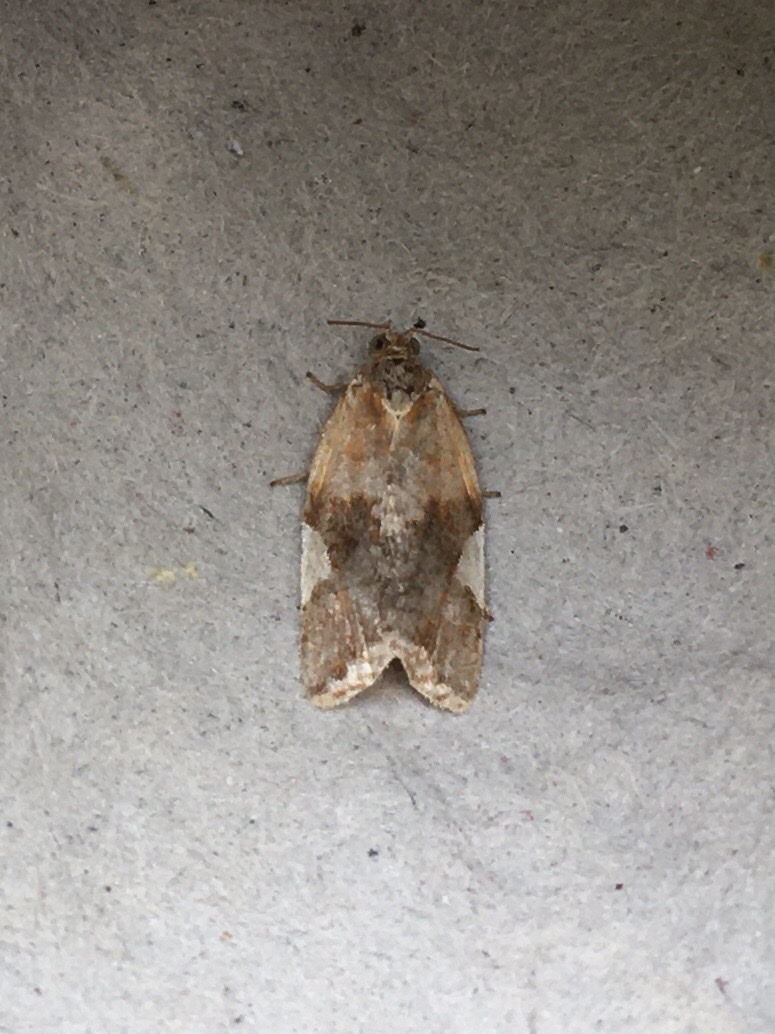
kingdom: Animalia
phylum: Arthropoda
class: Insecta
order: Lepidoptera
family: Tortricidae
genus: Clepsis
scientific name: Clepsis persicana
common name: White triangle tortrix
